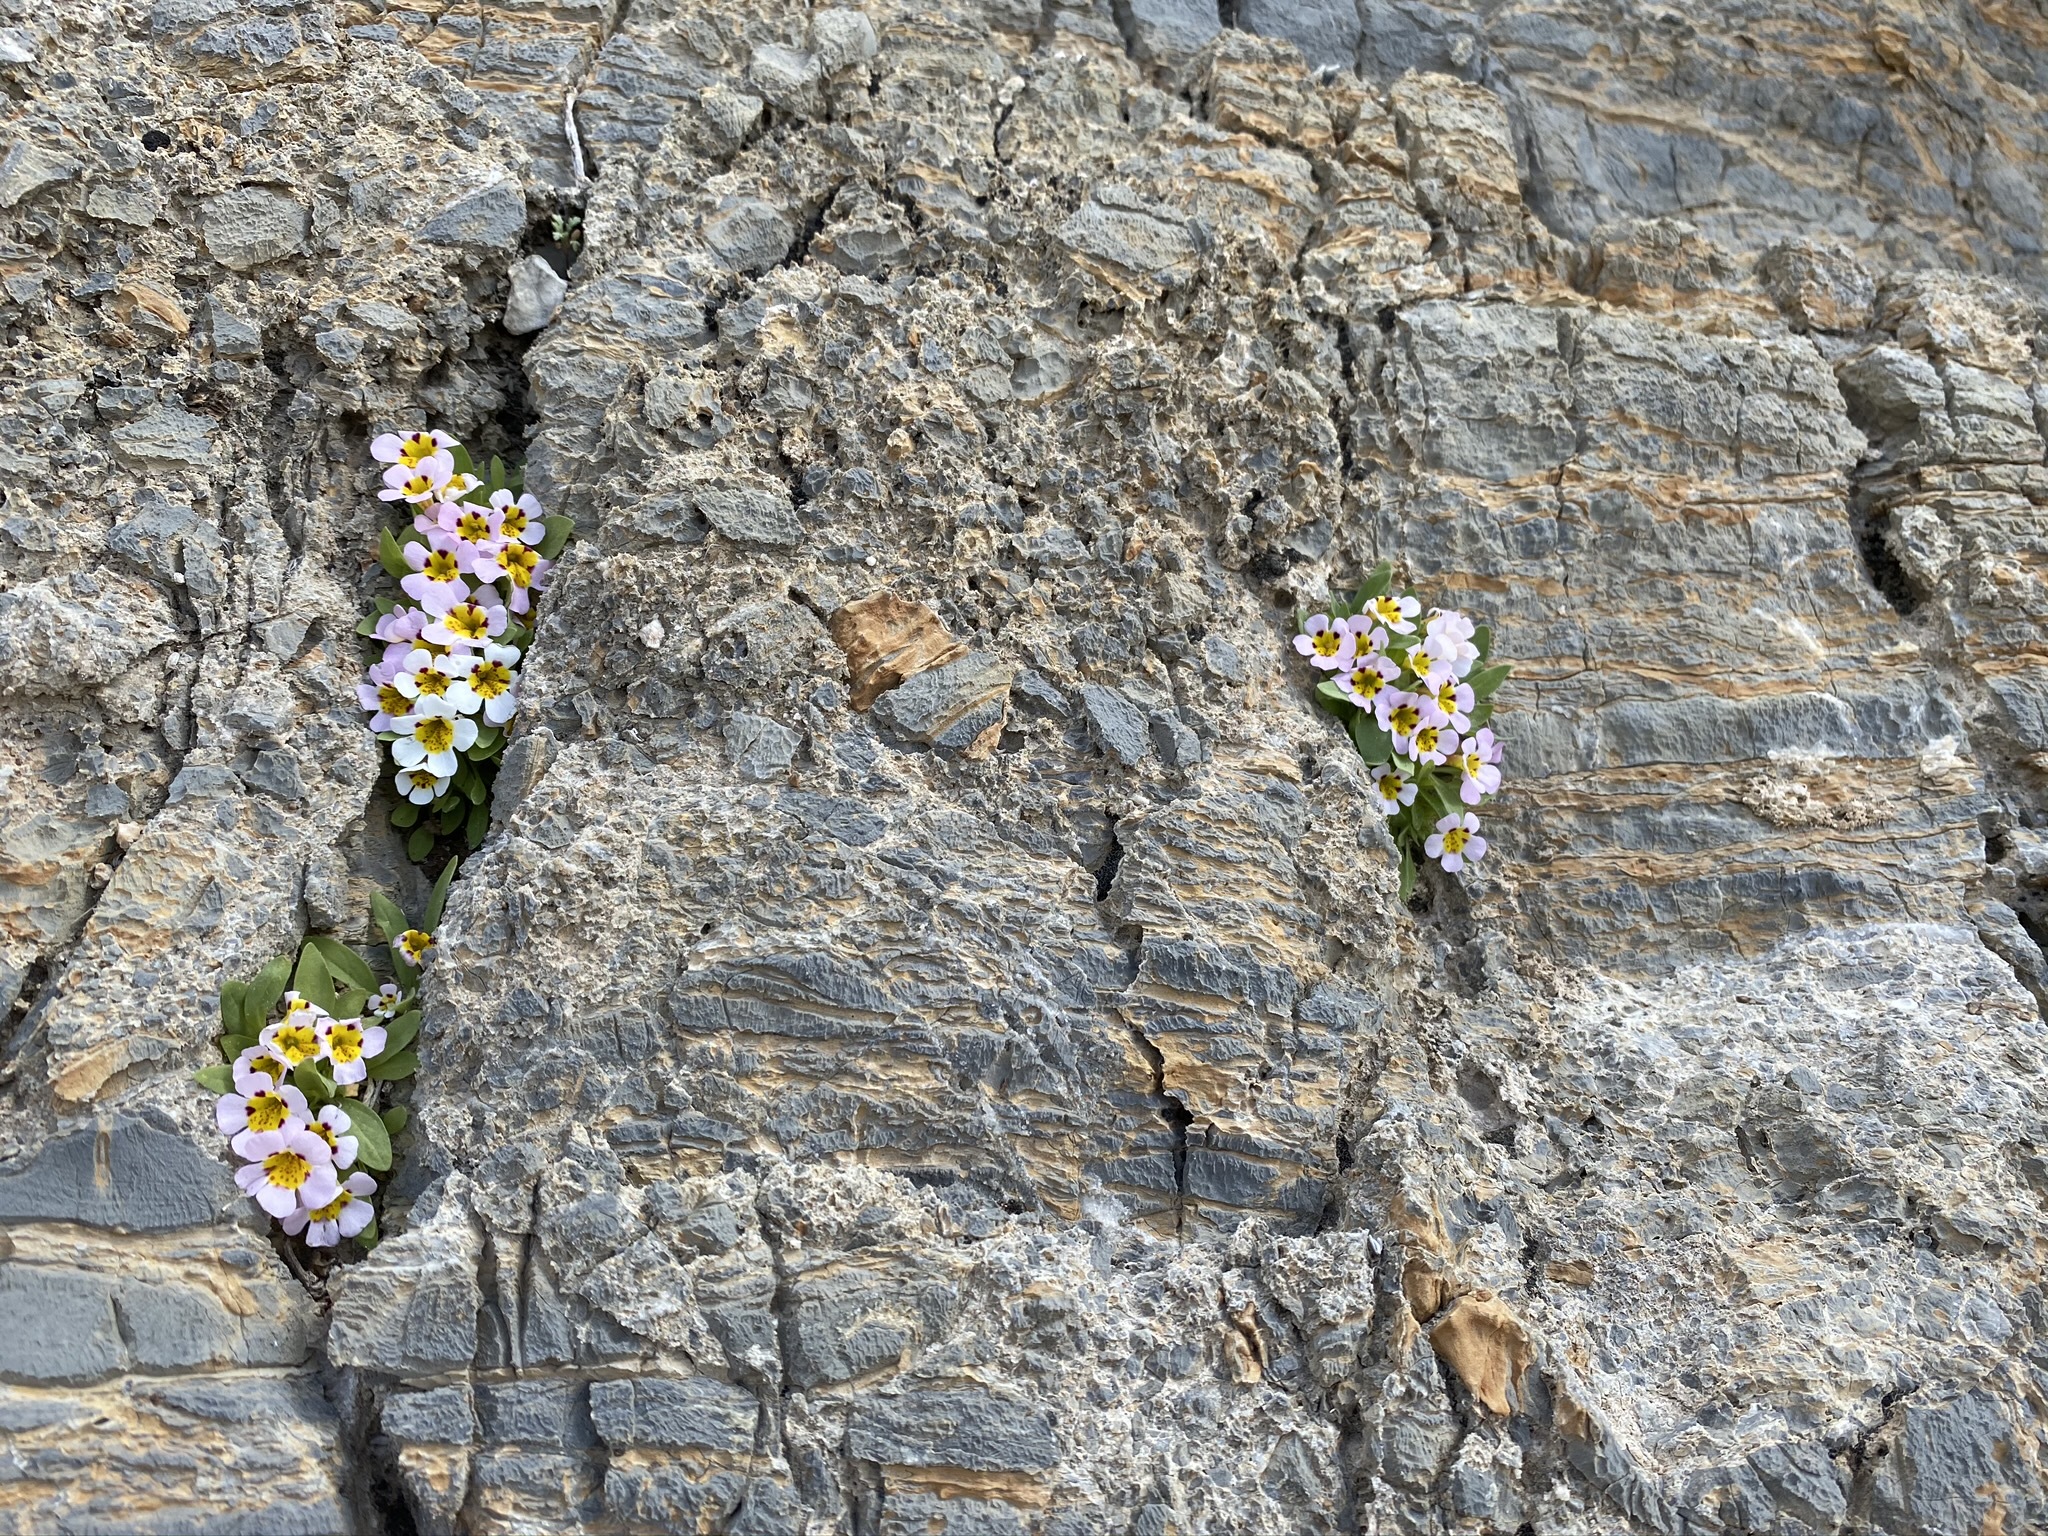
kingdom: Plantae
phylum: Tracheophyta
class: Magnoliopsida
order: Lamiales
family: Phrymaceae
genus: Diplacus
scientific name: Diplacus rupicola
